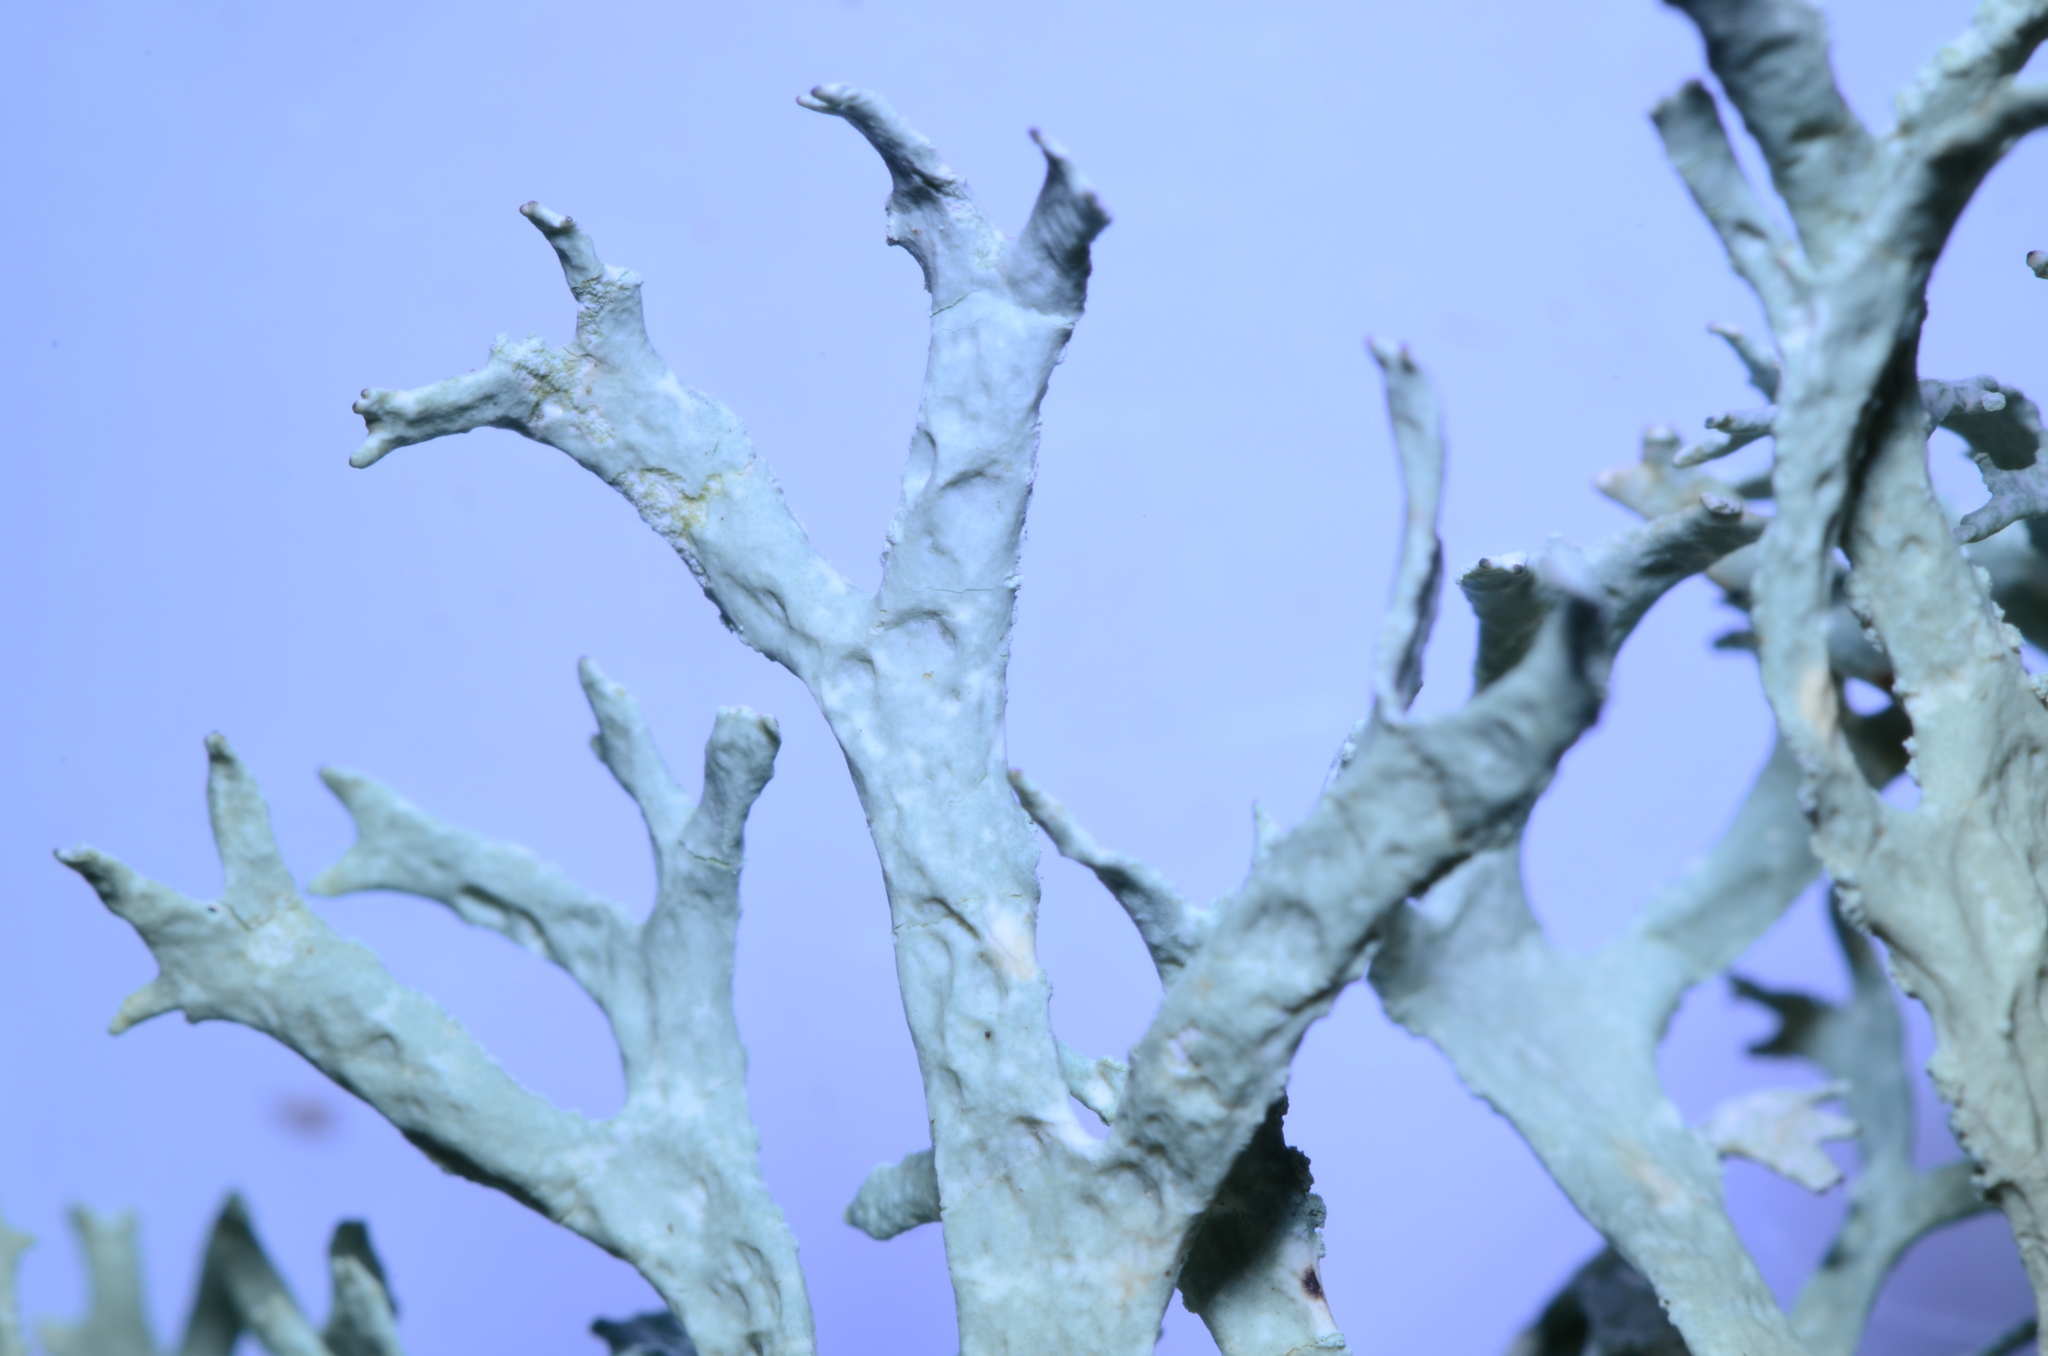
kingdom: Fungi
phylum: Ascomycota
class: Lecanoromycetes
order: Lecanorales
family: Parmeliaceae
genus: Evernia
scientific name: Evernia prunastri
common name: Oak moss
